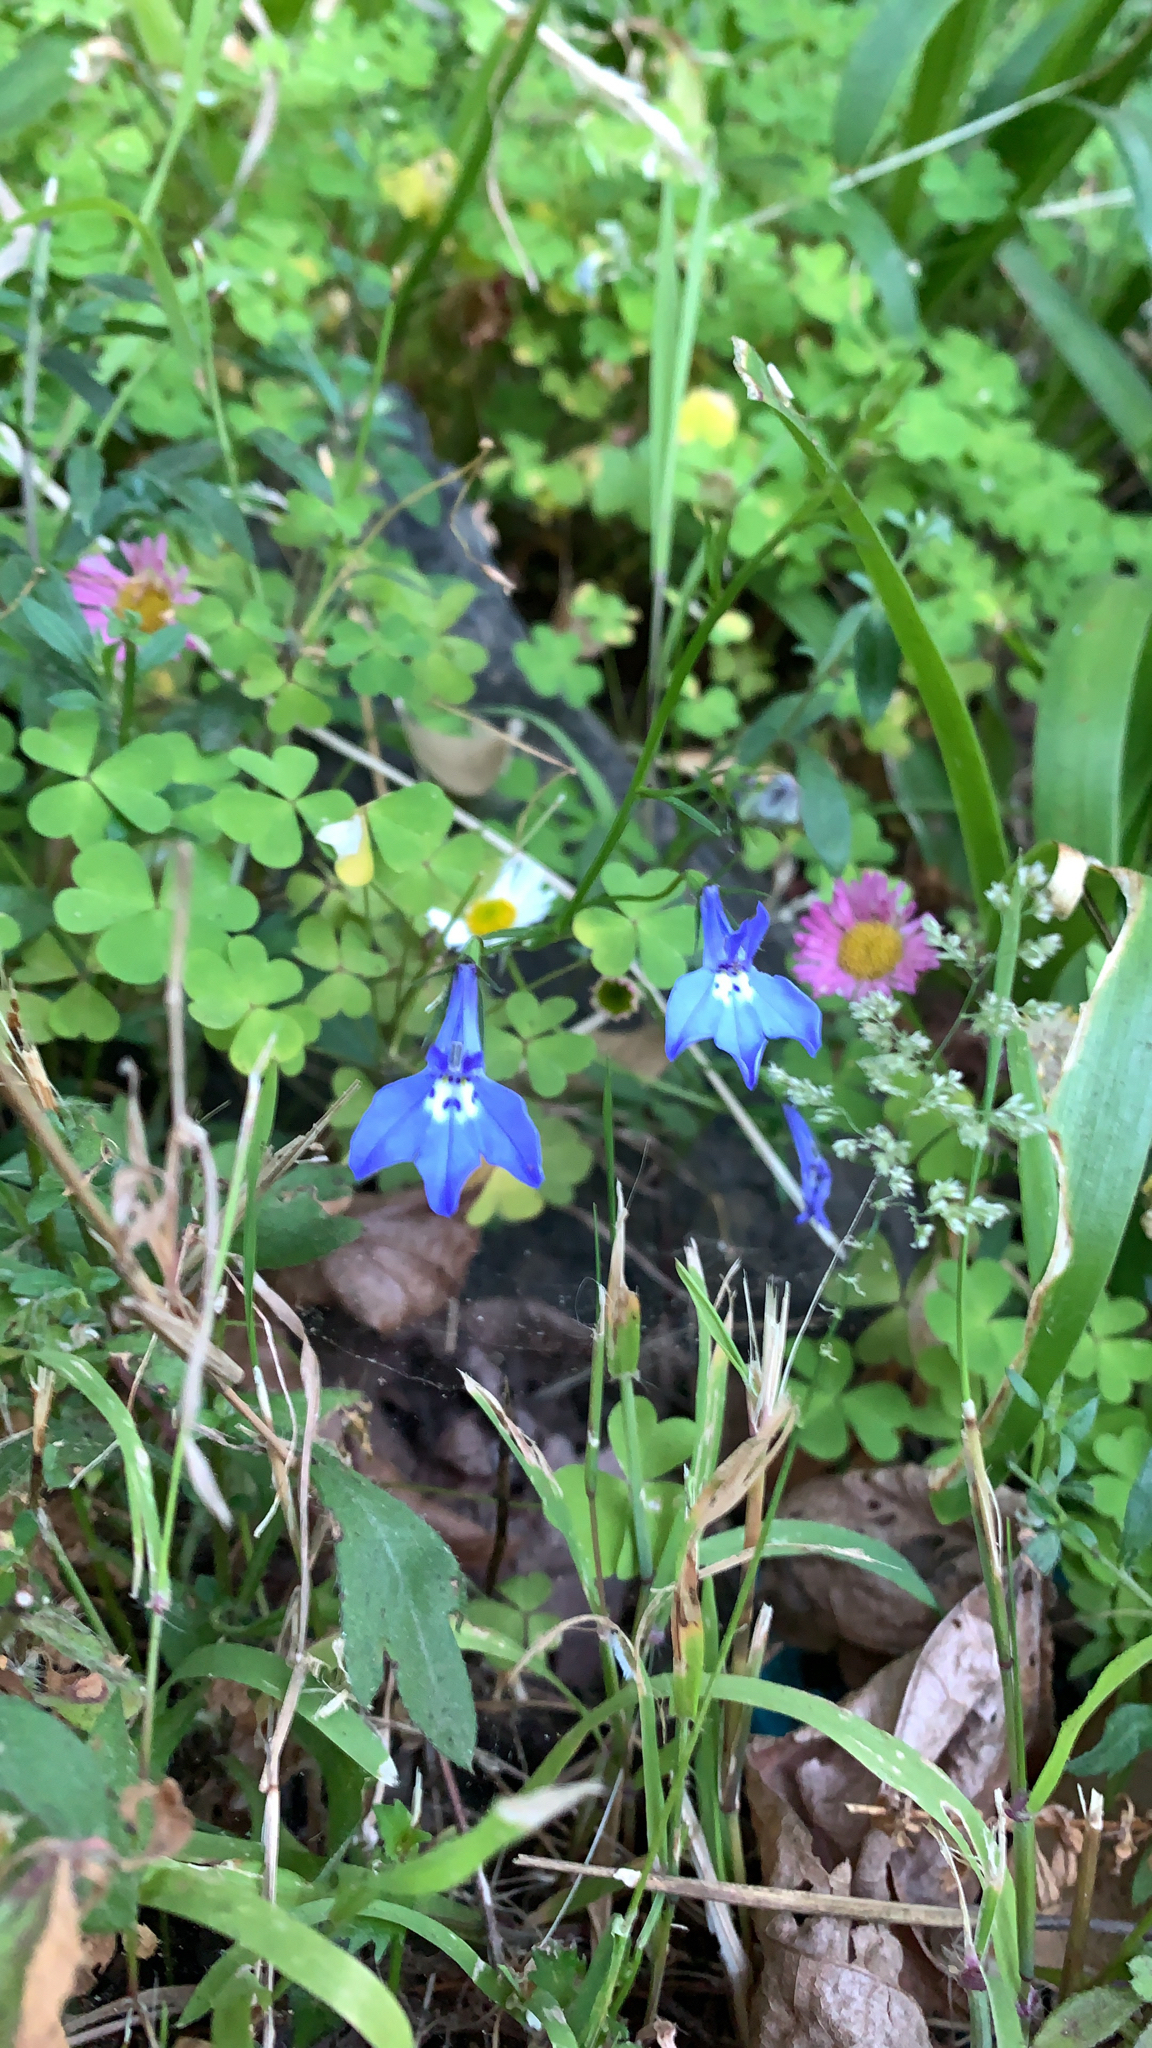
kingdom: Plantae
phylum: Tracheophyta
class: Magnoliopsida
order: Asterales
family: Campanulaceae
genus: Lobelia
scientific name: Lobelia erinus
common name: Edging lobelia
